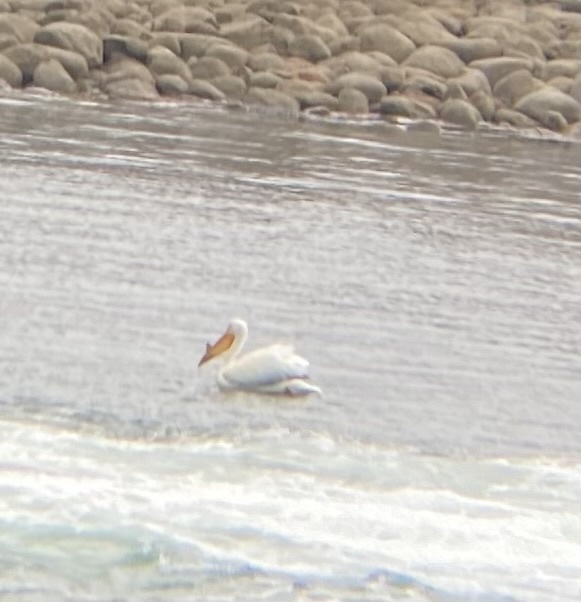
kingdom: Animalia
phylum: Chordata
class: Aves
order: Pelecaniformes
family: Pelecanidae
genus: Pelecanus
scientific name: Pelecanus erythrorhynchos
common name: American white pelican
